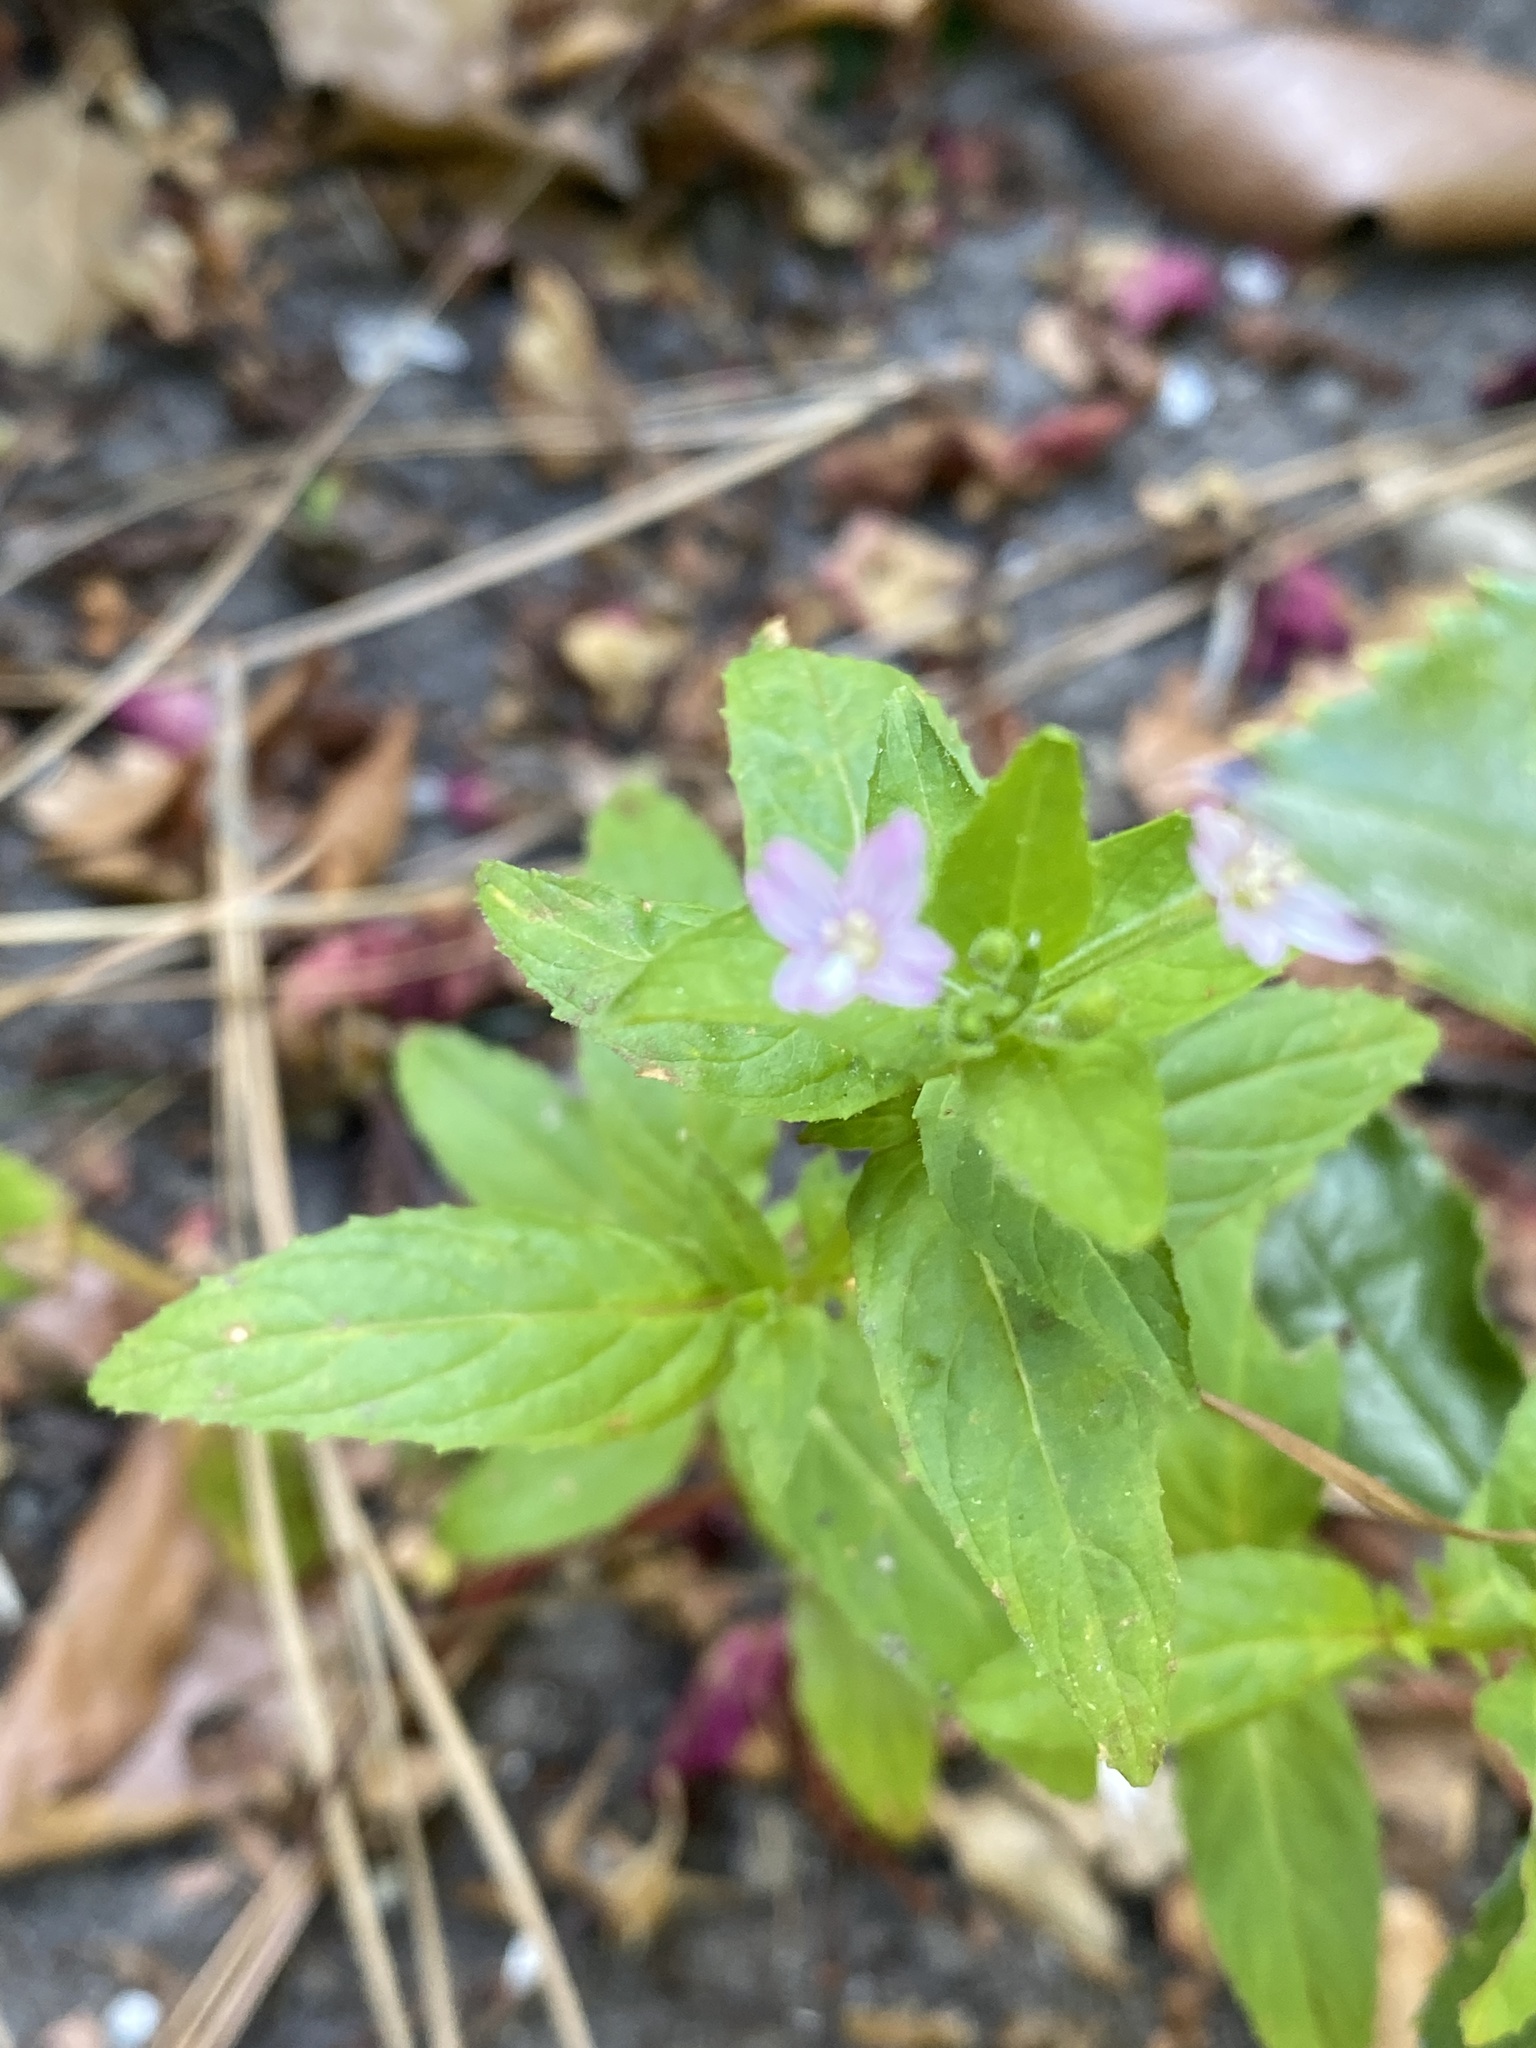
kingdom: Plantae
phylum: Tracheophyta
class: Magnoliopsida
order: Myrtales
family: Onagraceae
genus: Epilobium
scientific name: Epilobium ciliatum
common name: American willowherb
